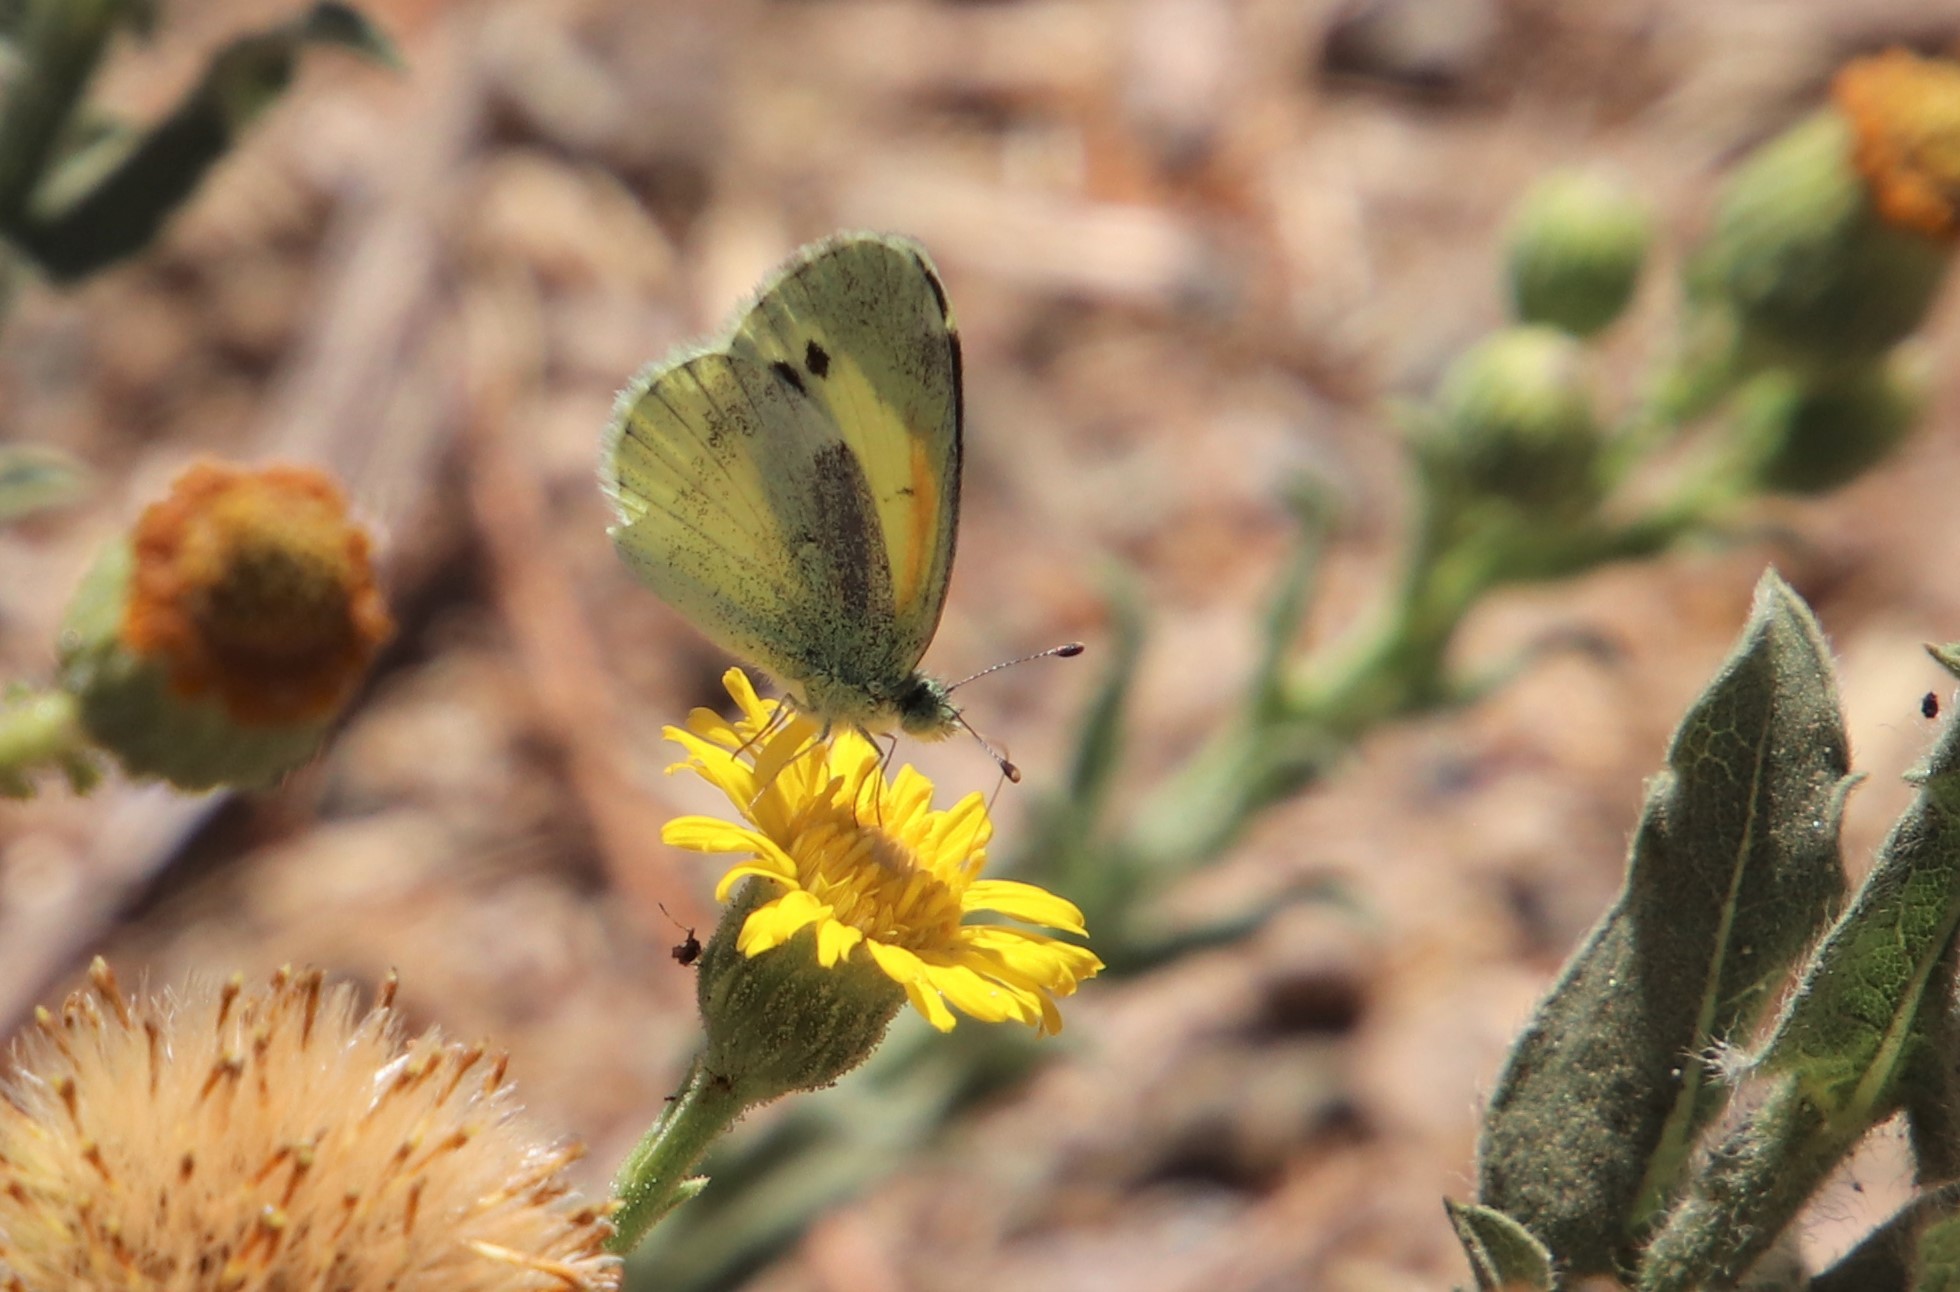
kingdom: Animalia
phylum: Arthropoda
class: Insecta
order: Lepidoptera
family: Pieridae
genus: Nathalis
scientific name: Nathalis iole
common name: Dainty sulphur
